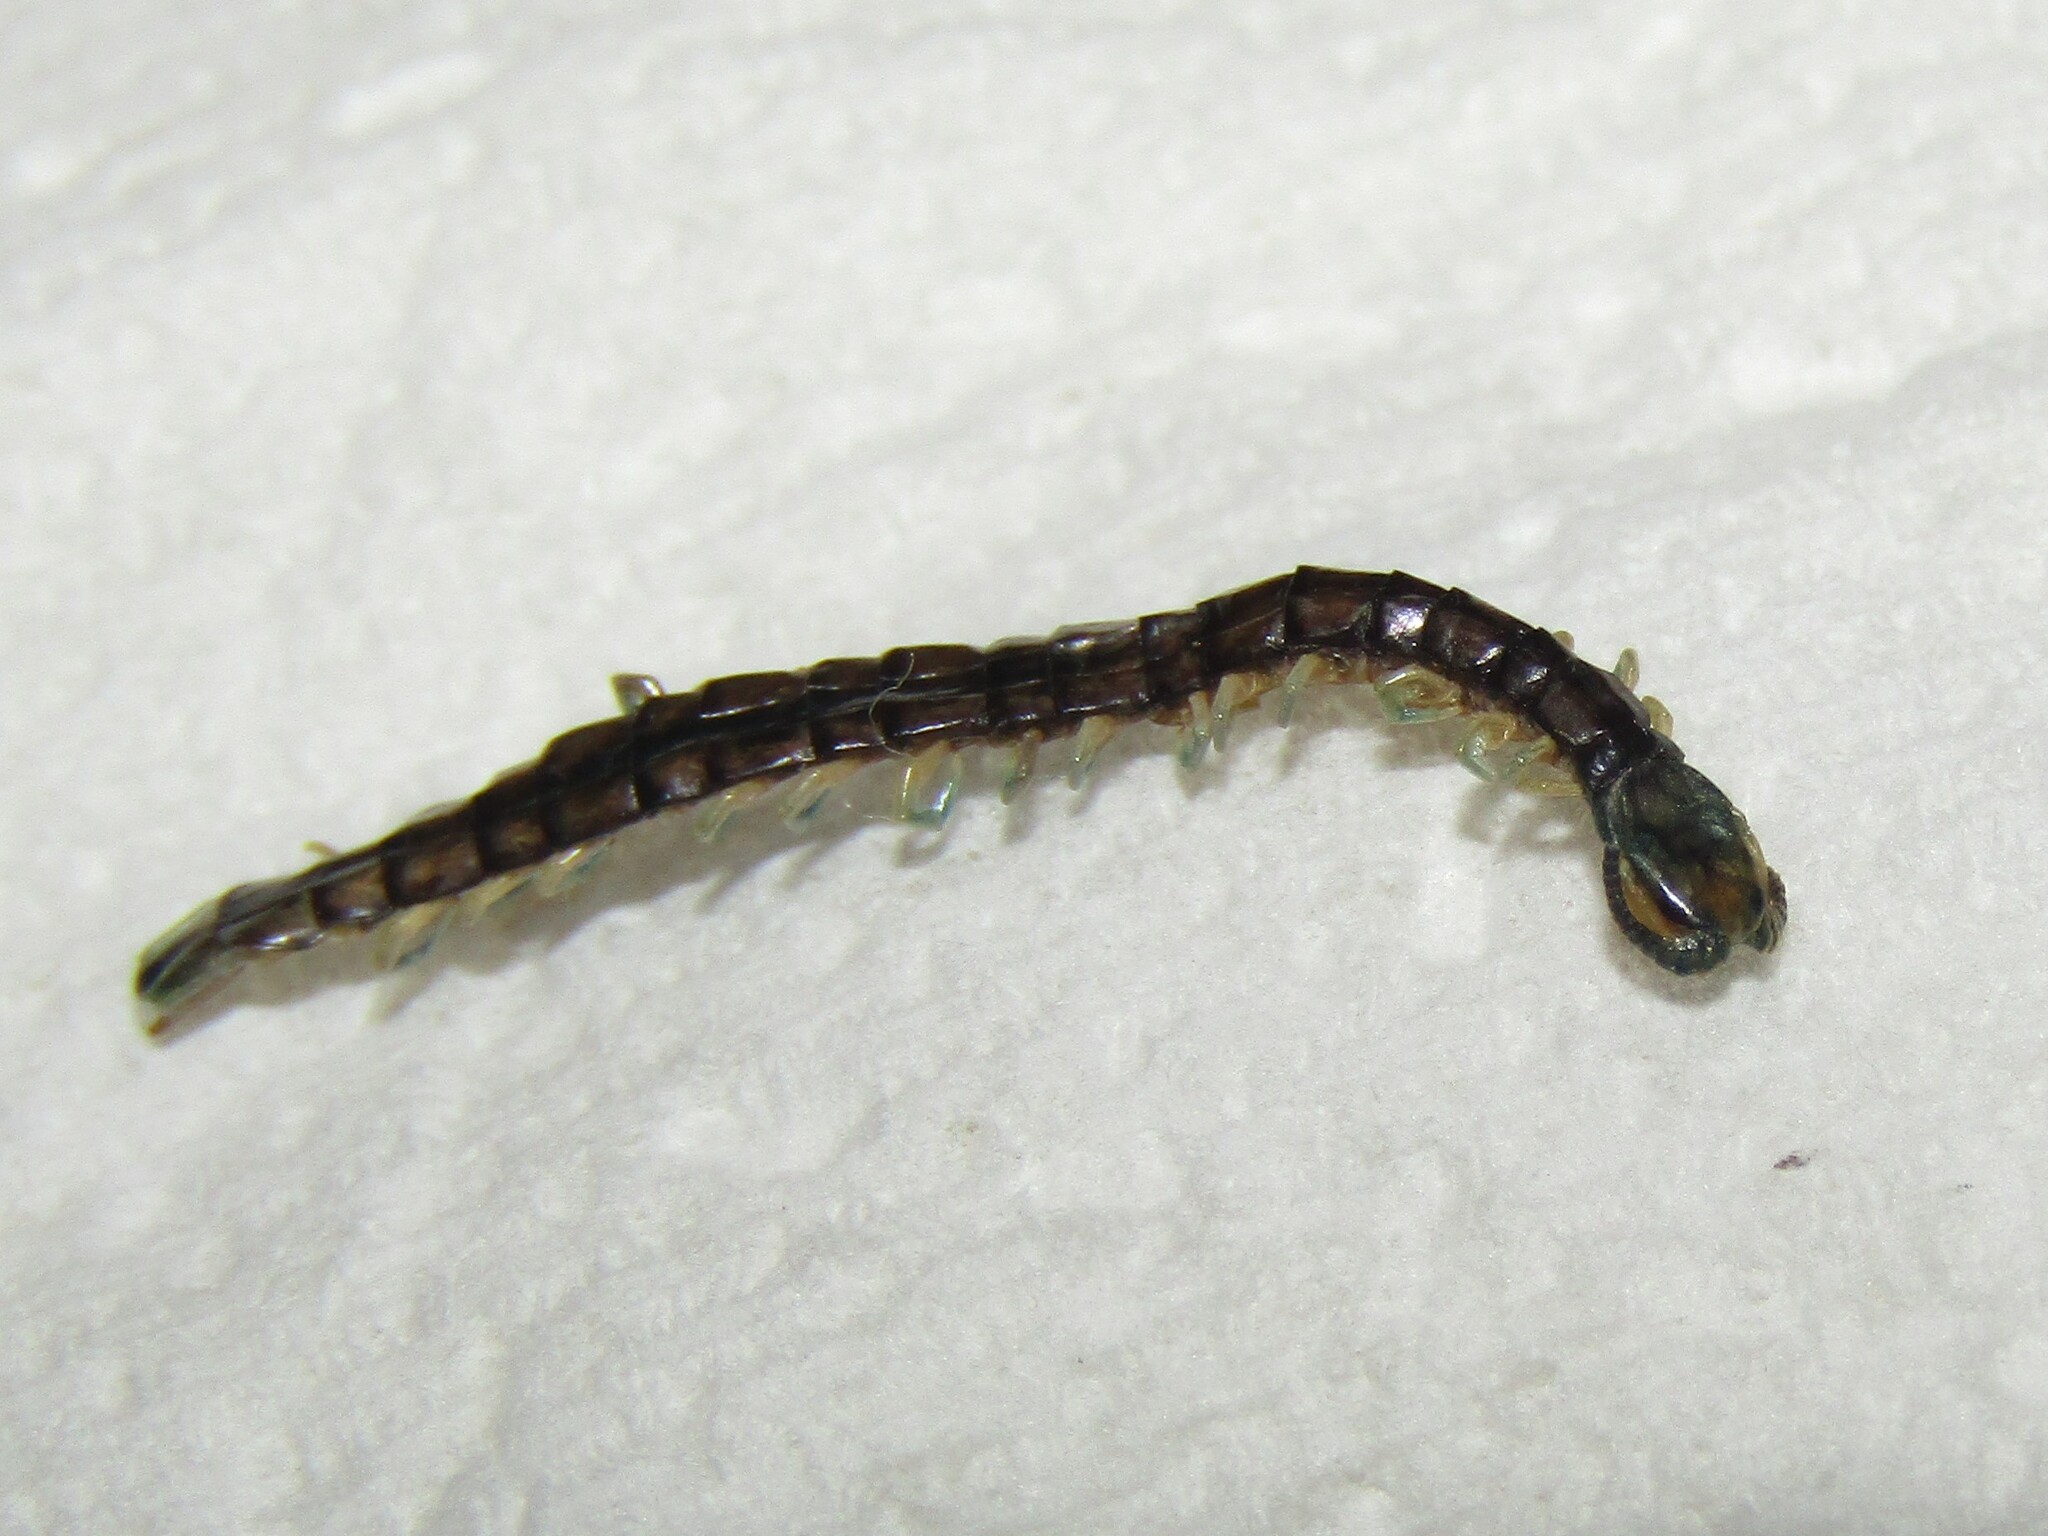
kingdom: Animalia
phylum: Arthropoda
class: Chilopoda
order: Scolopendromorpha
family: Scolopendridae
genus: Hemiscolopendra
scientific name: Hemiscolopendra marginata
